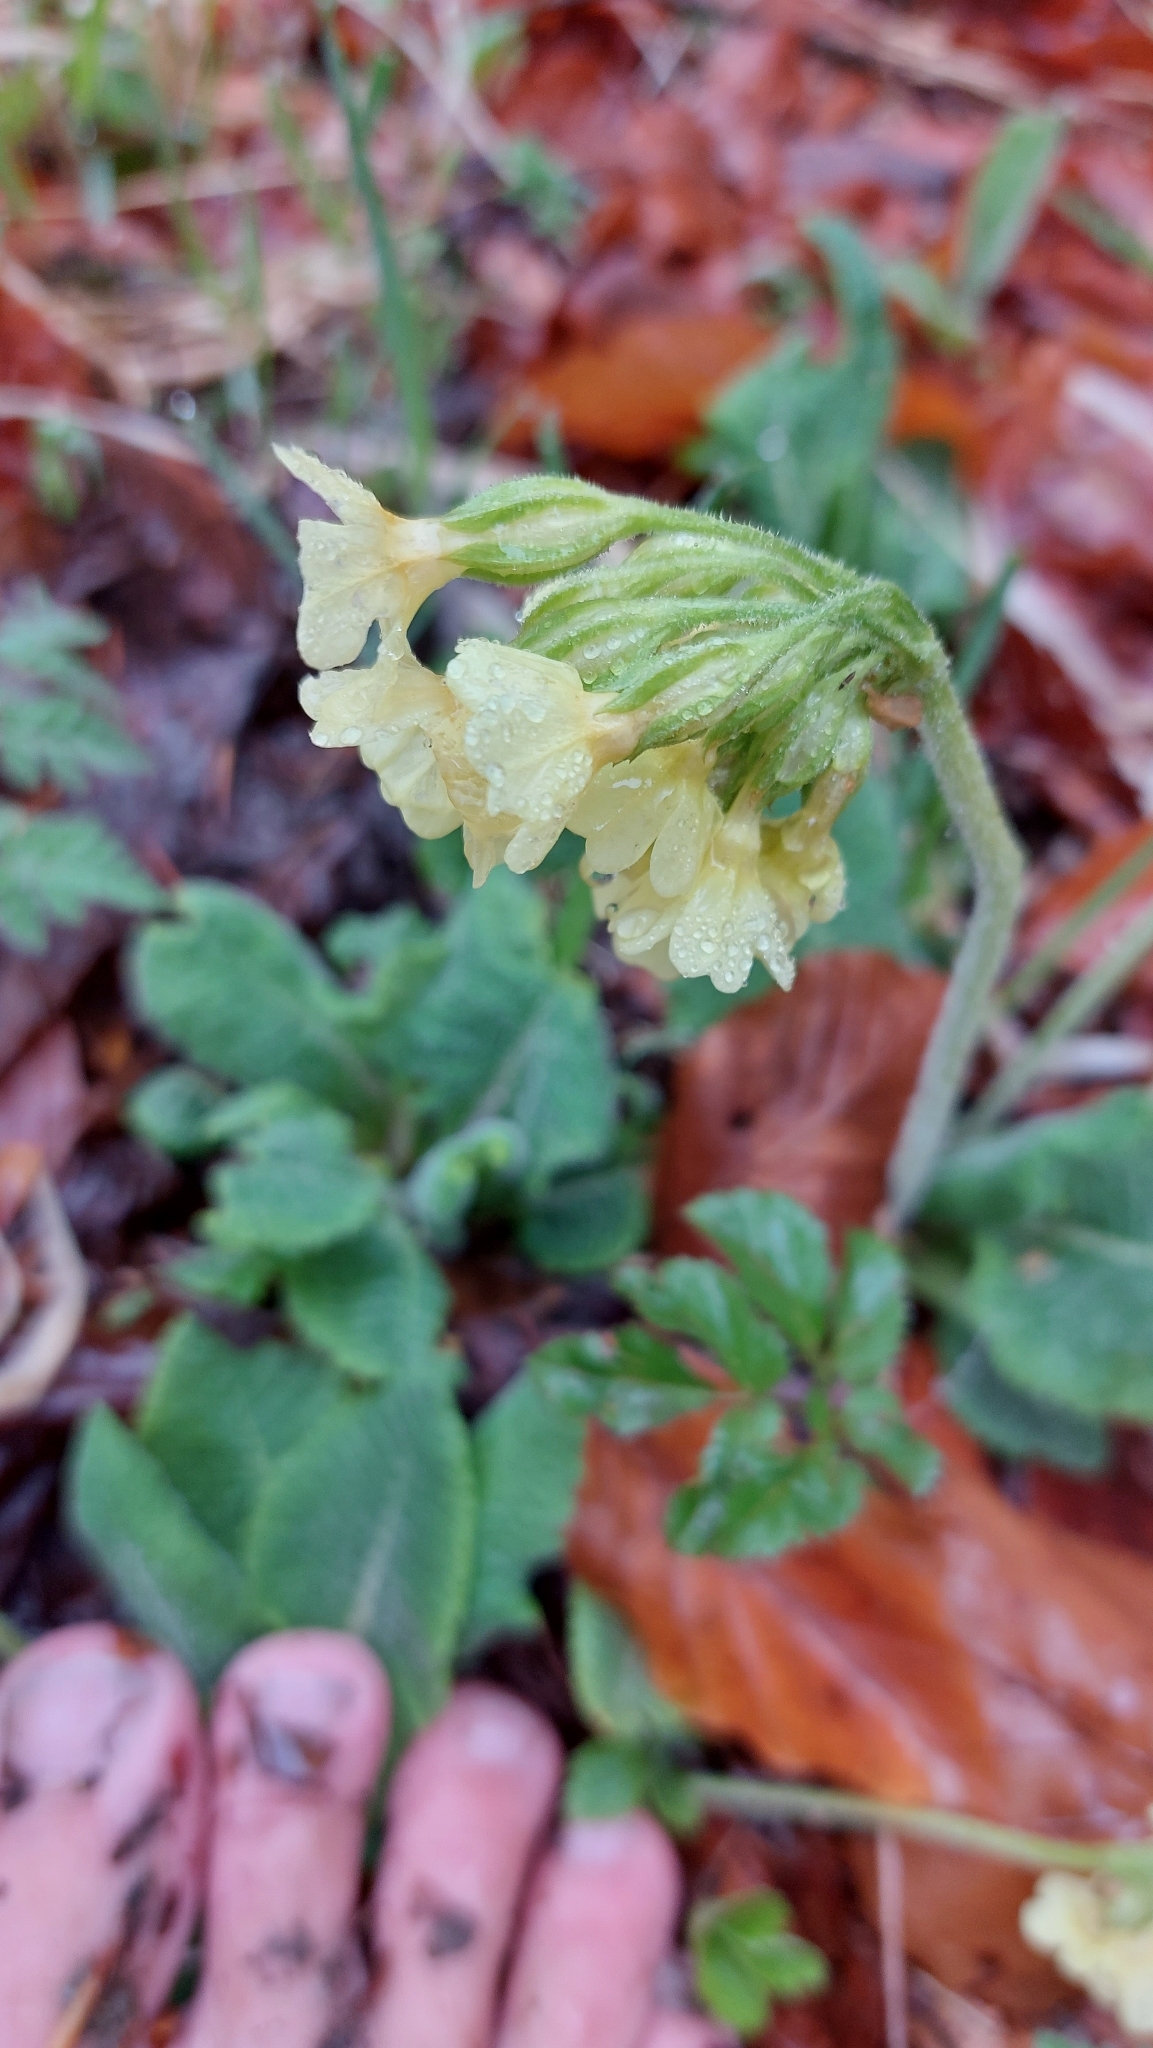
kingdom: Plantae
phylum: Tracheophyta
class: Magnoliopsida
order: Ericales
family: Primulaceae
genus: Primula
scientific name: Primula elatior
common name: Oxlip
